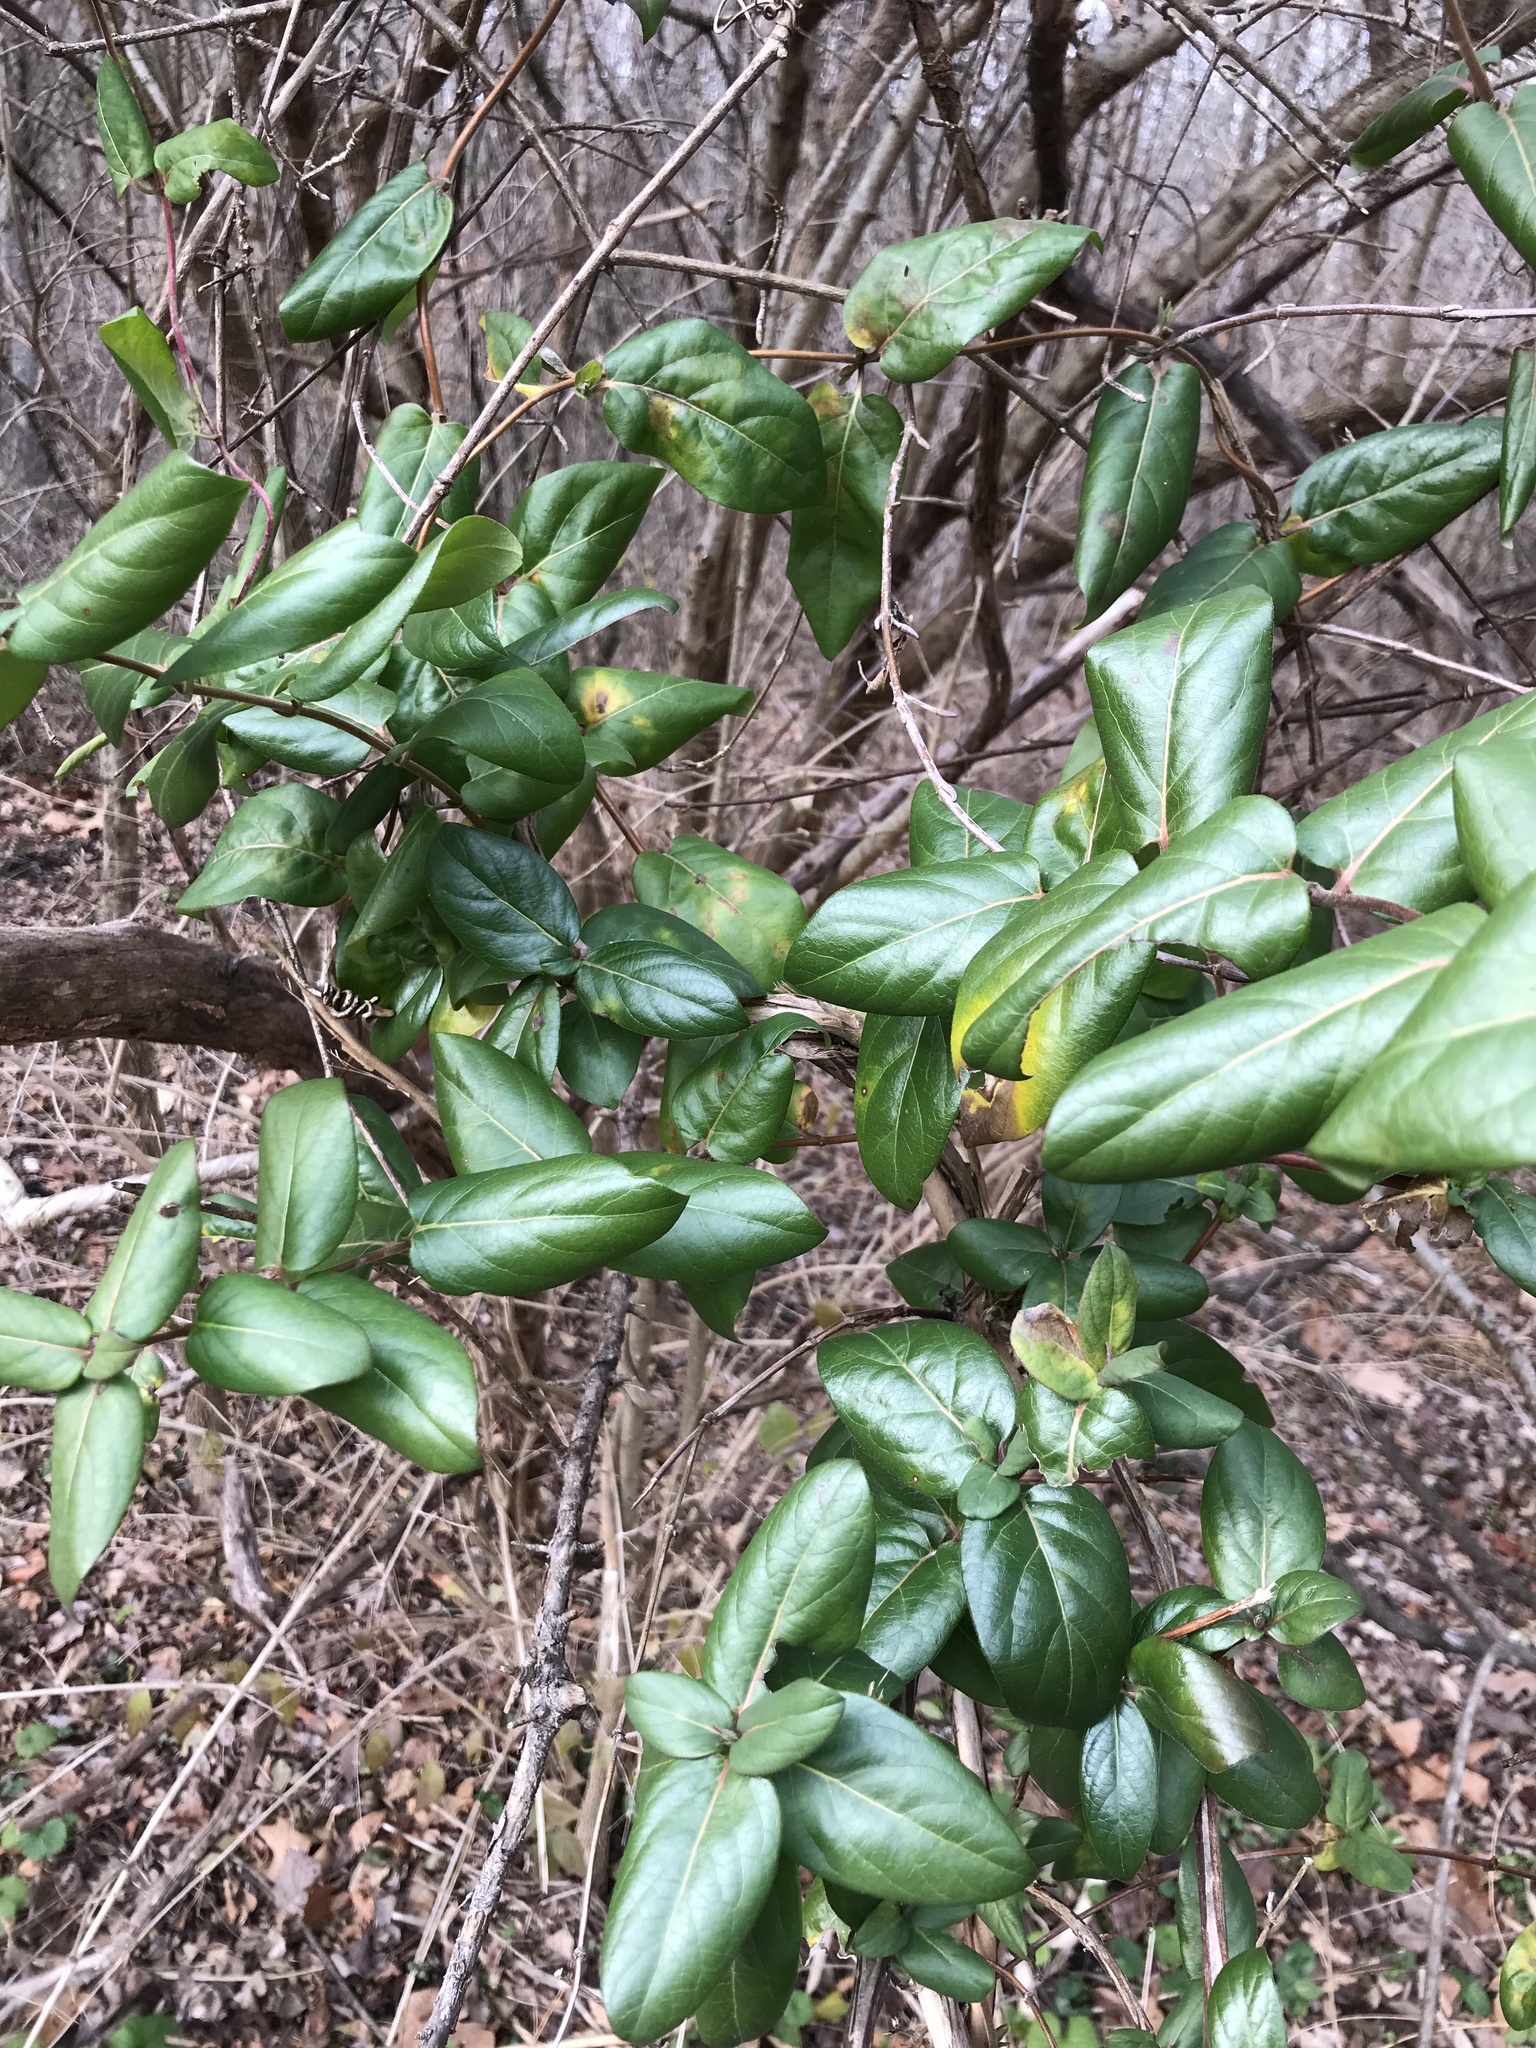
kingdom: Plantae
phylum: Tracheophyta
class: Magnoliopsida
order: Dipsacales
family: Caprifoliaceae
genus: Lonicera
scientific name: Lonicera japonica
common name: Japanese honeysuckle
